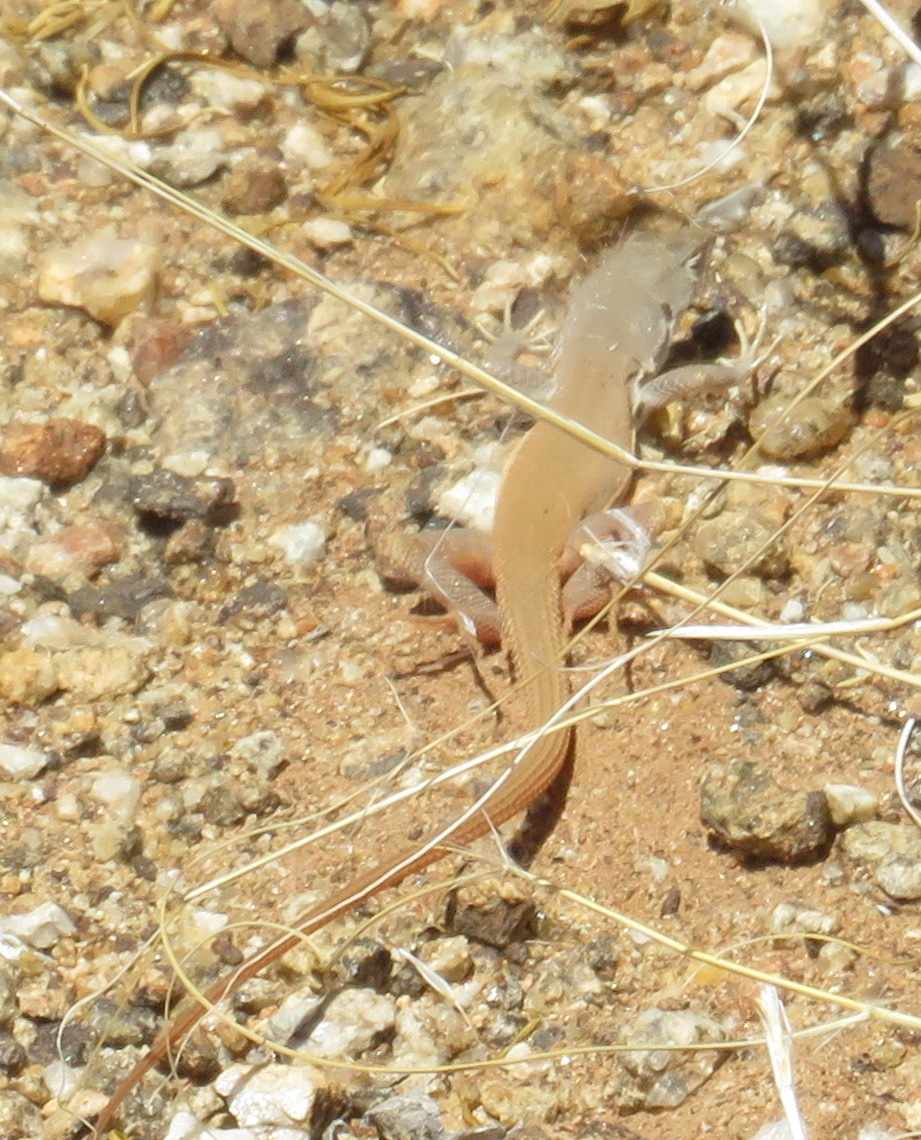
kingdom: Animalia
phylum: Chordata
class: Squamata
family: Lacertidae
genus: Pedioplanis
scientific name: Pedioplanis inornata
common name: Plain sand lizard
